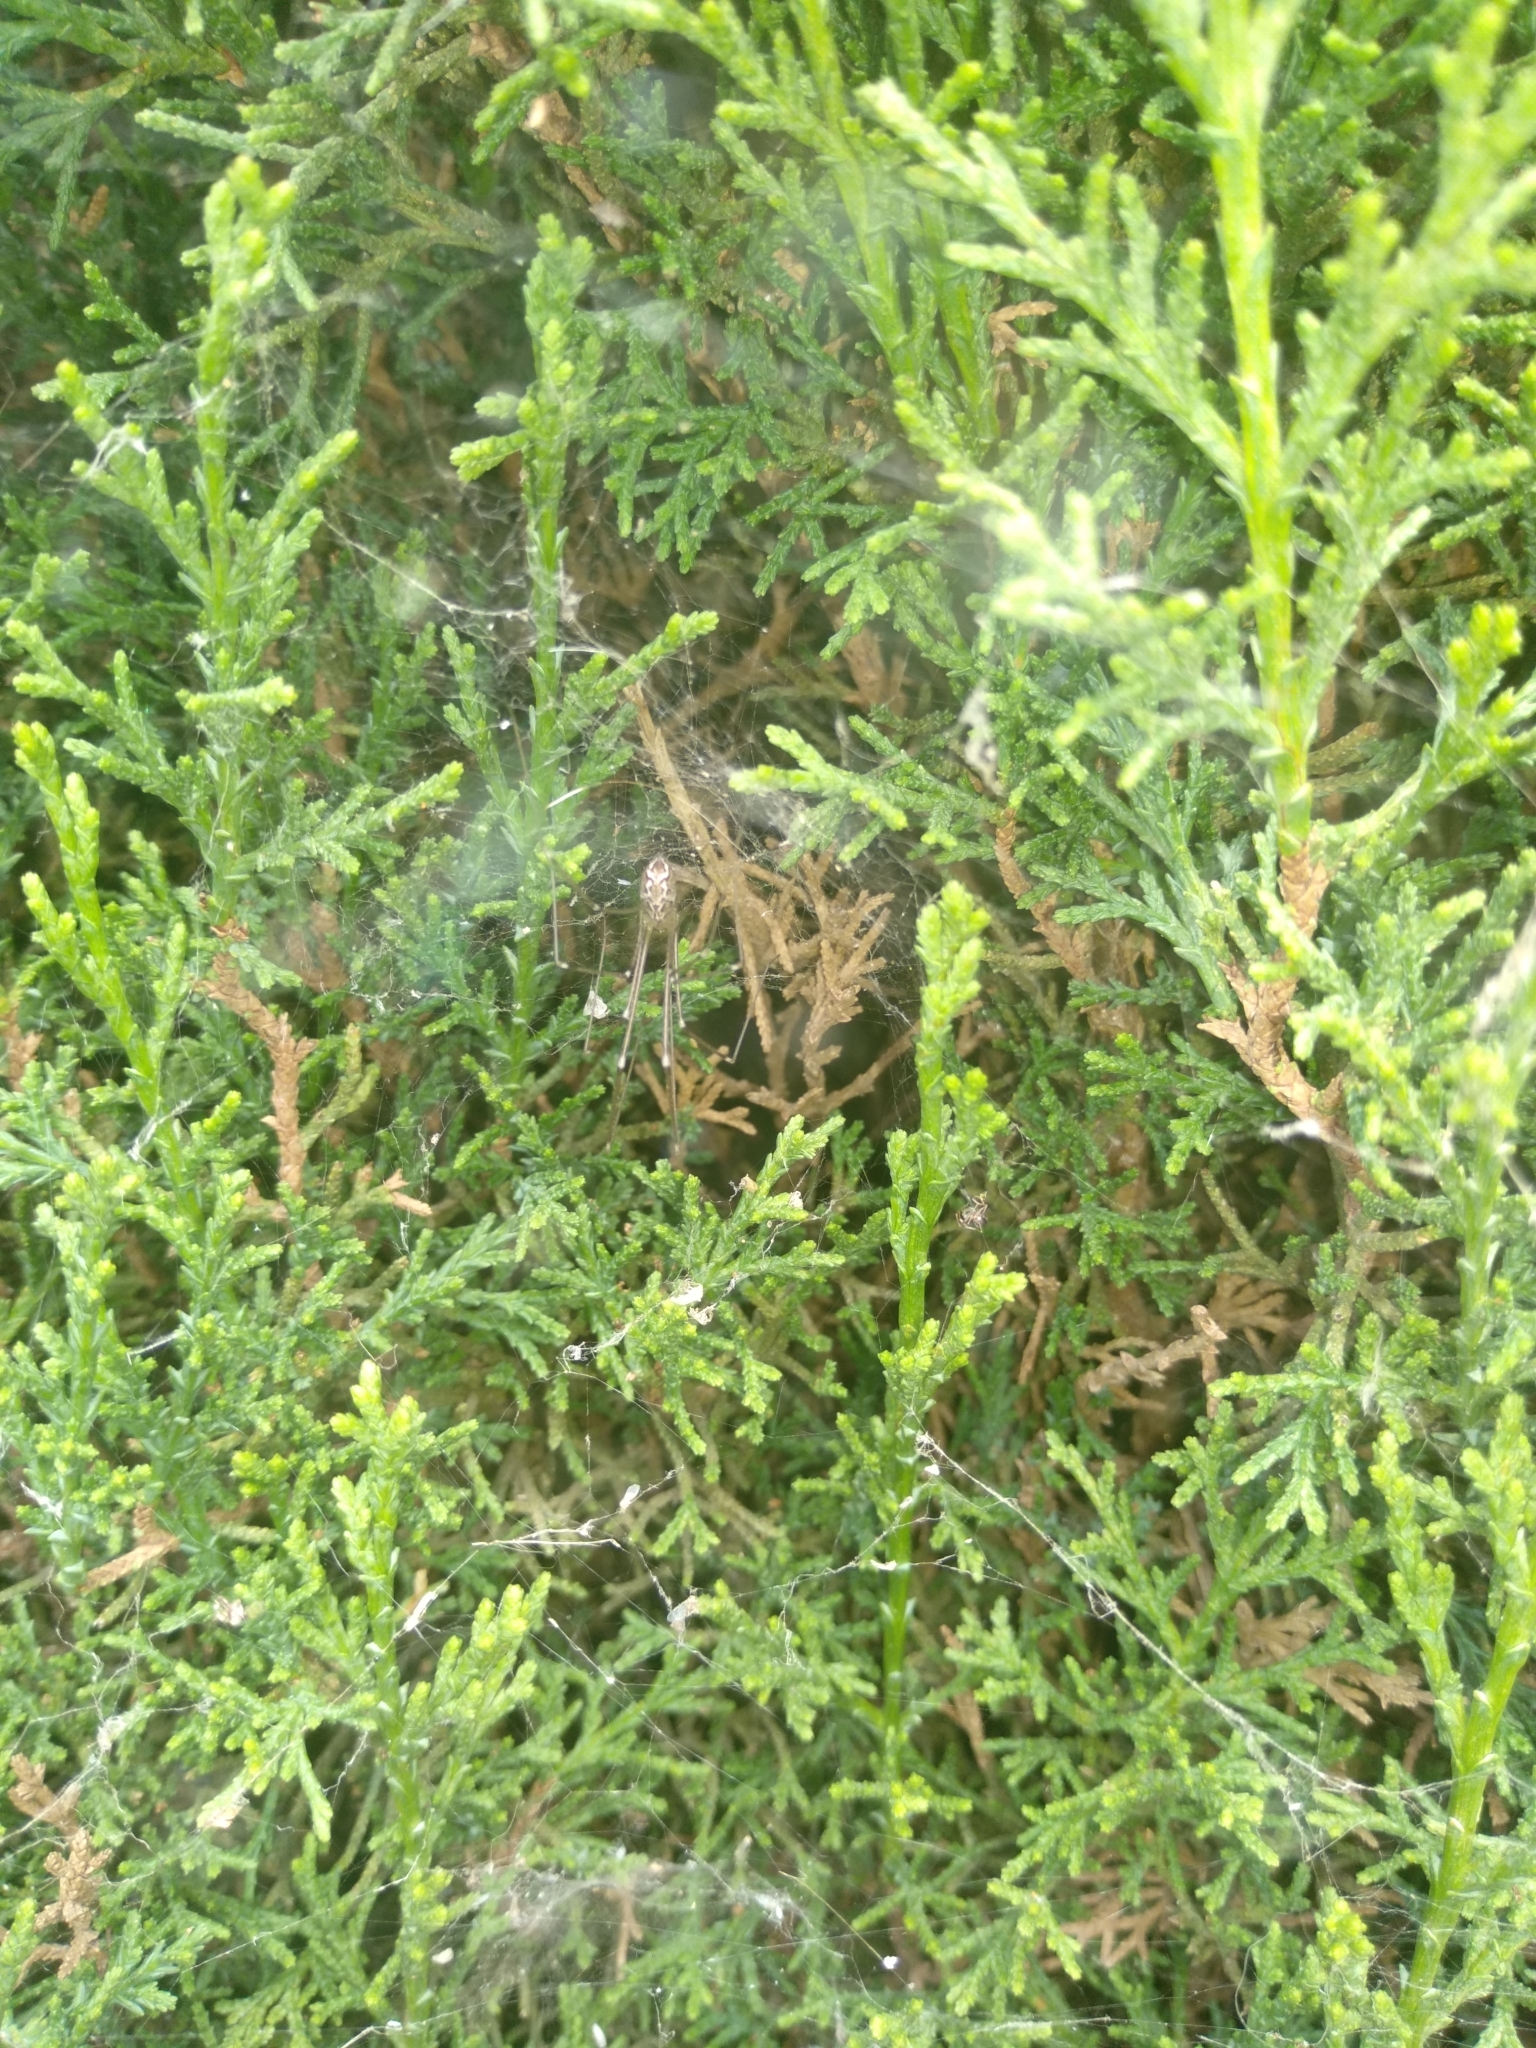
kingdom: Animalia
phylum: Arthropoda
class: Arachnida
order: Araneae
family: Pholcidae
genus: Holocnemus
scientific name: Holocnemus pluchei
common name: Marbled cellar spider
